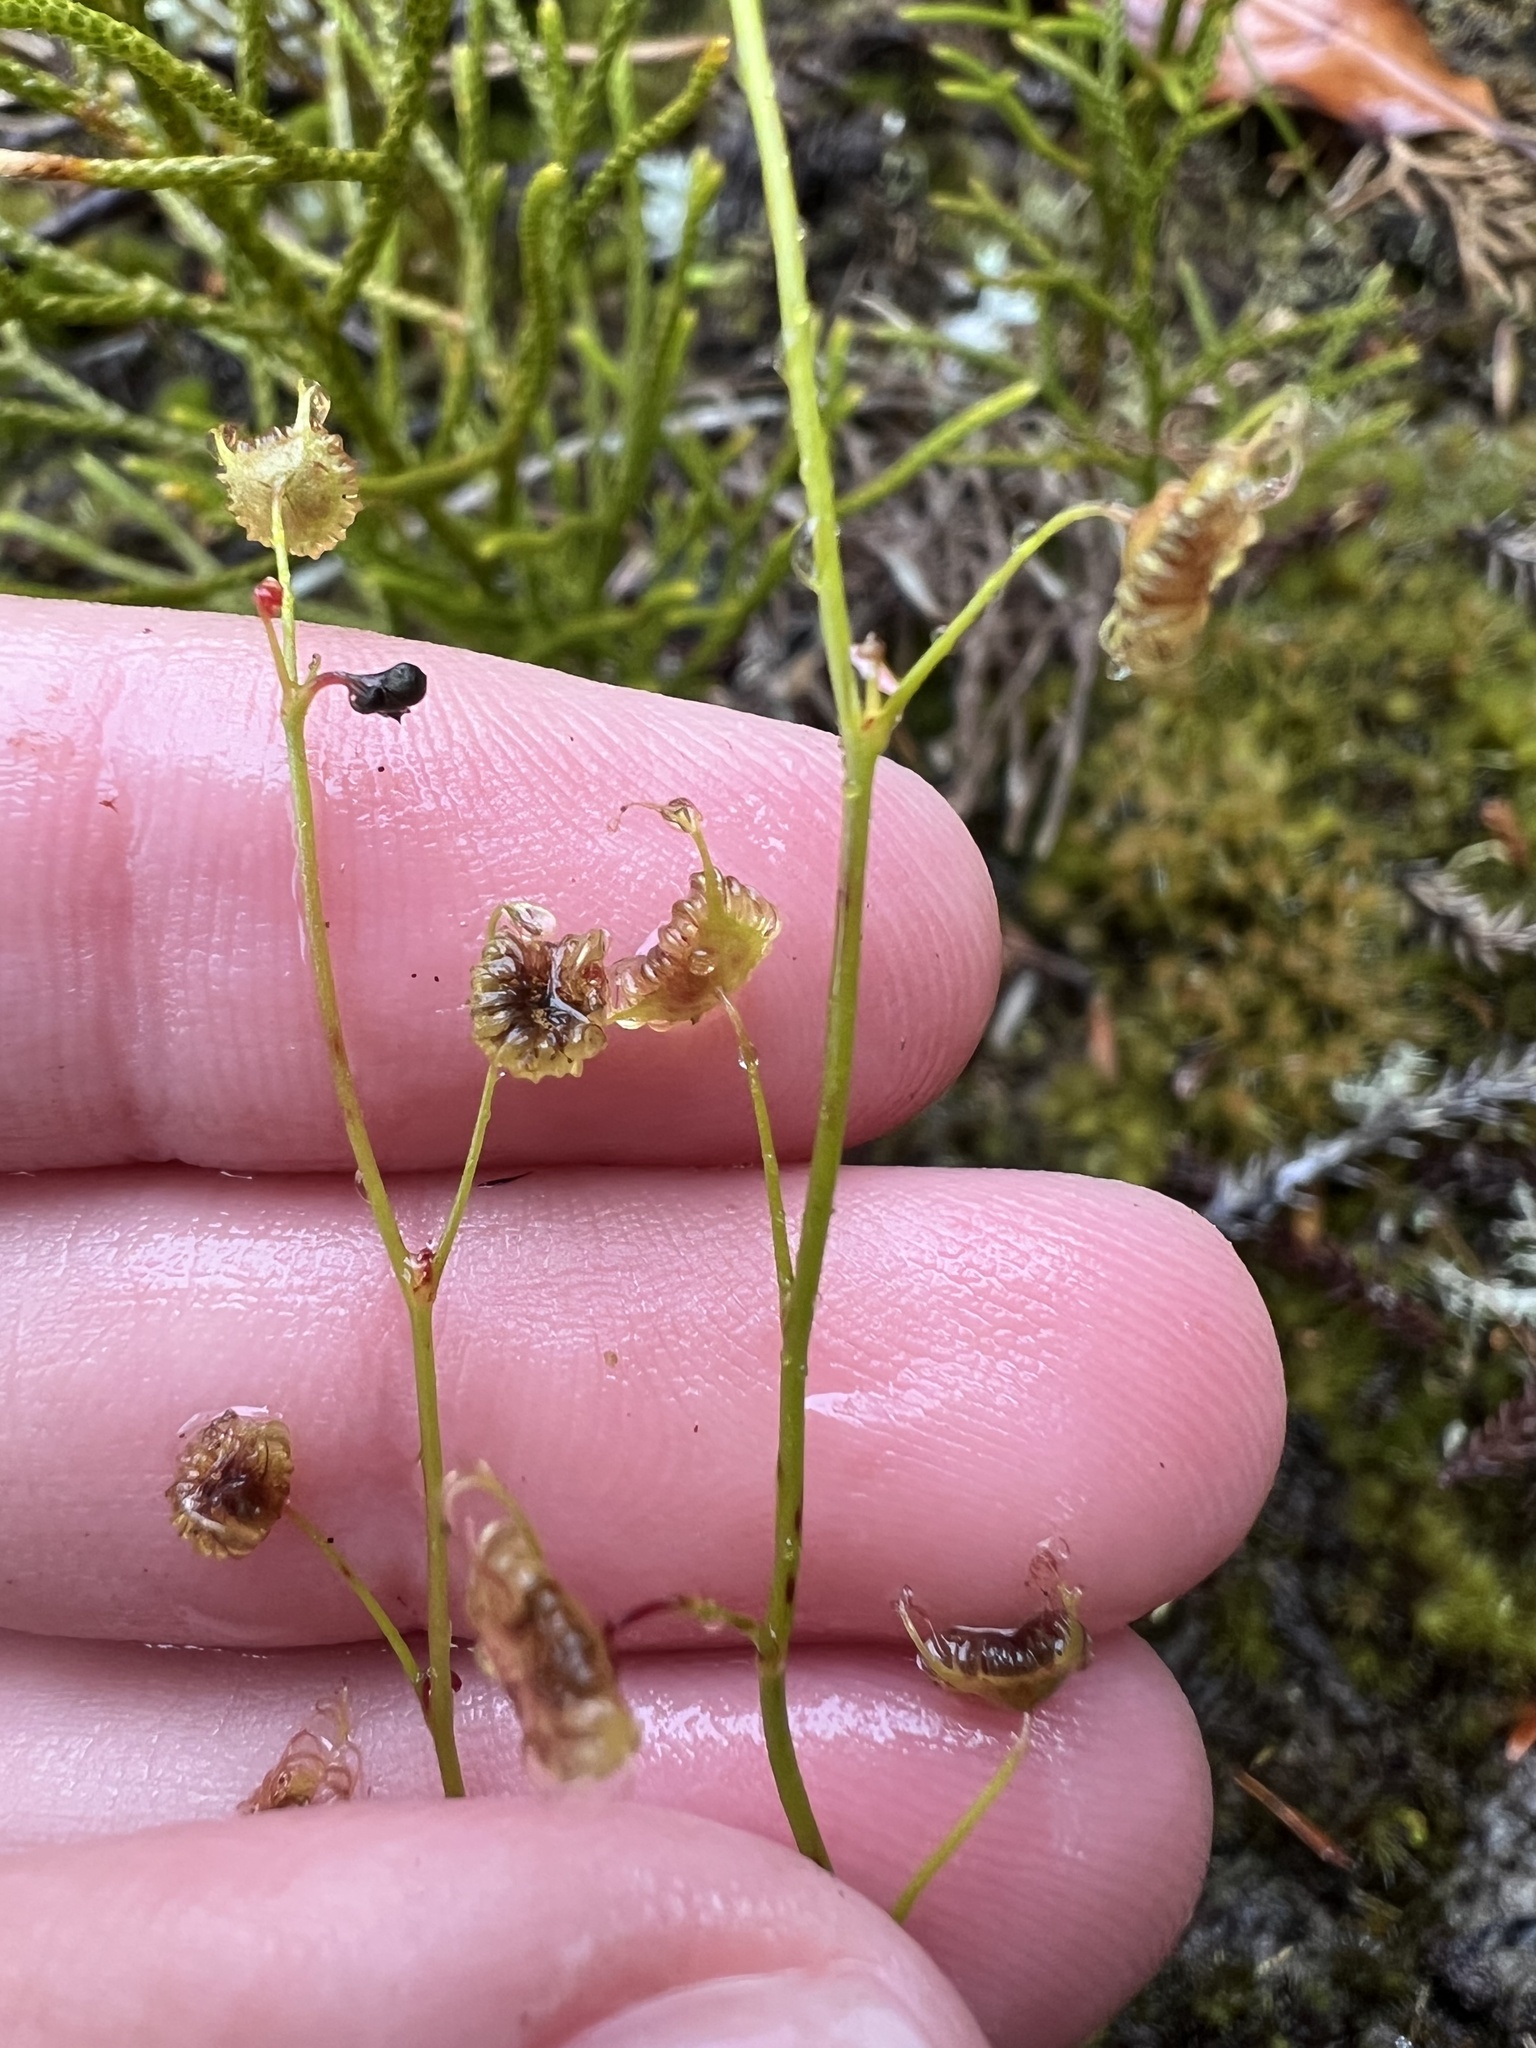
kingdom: Plantae
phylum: Tracheophyta
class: Magnoliopsida
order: Caryophyllales
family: Droseraceae
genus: Drosera
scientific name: Drosera peltata
